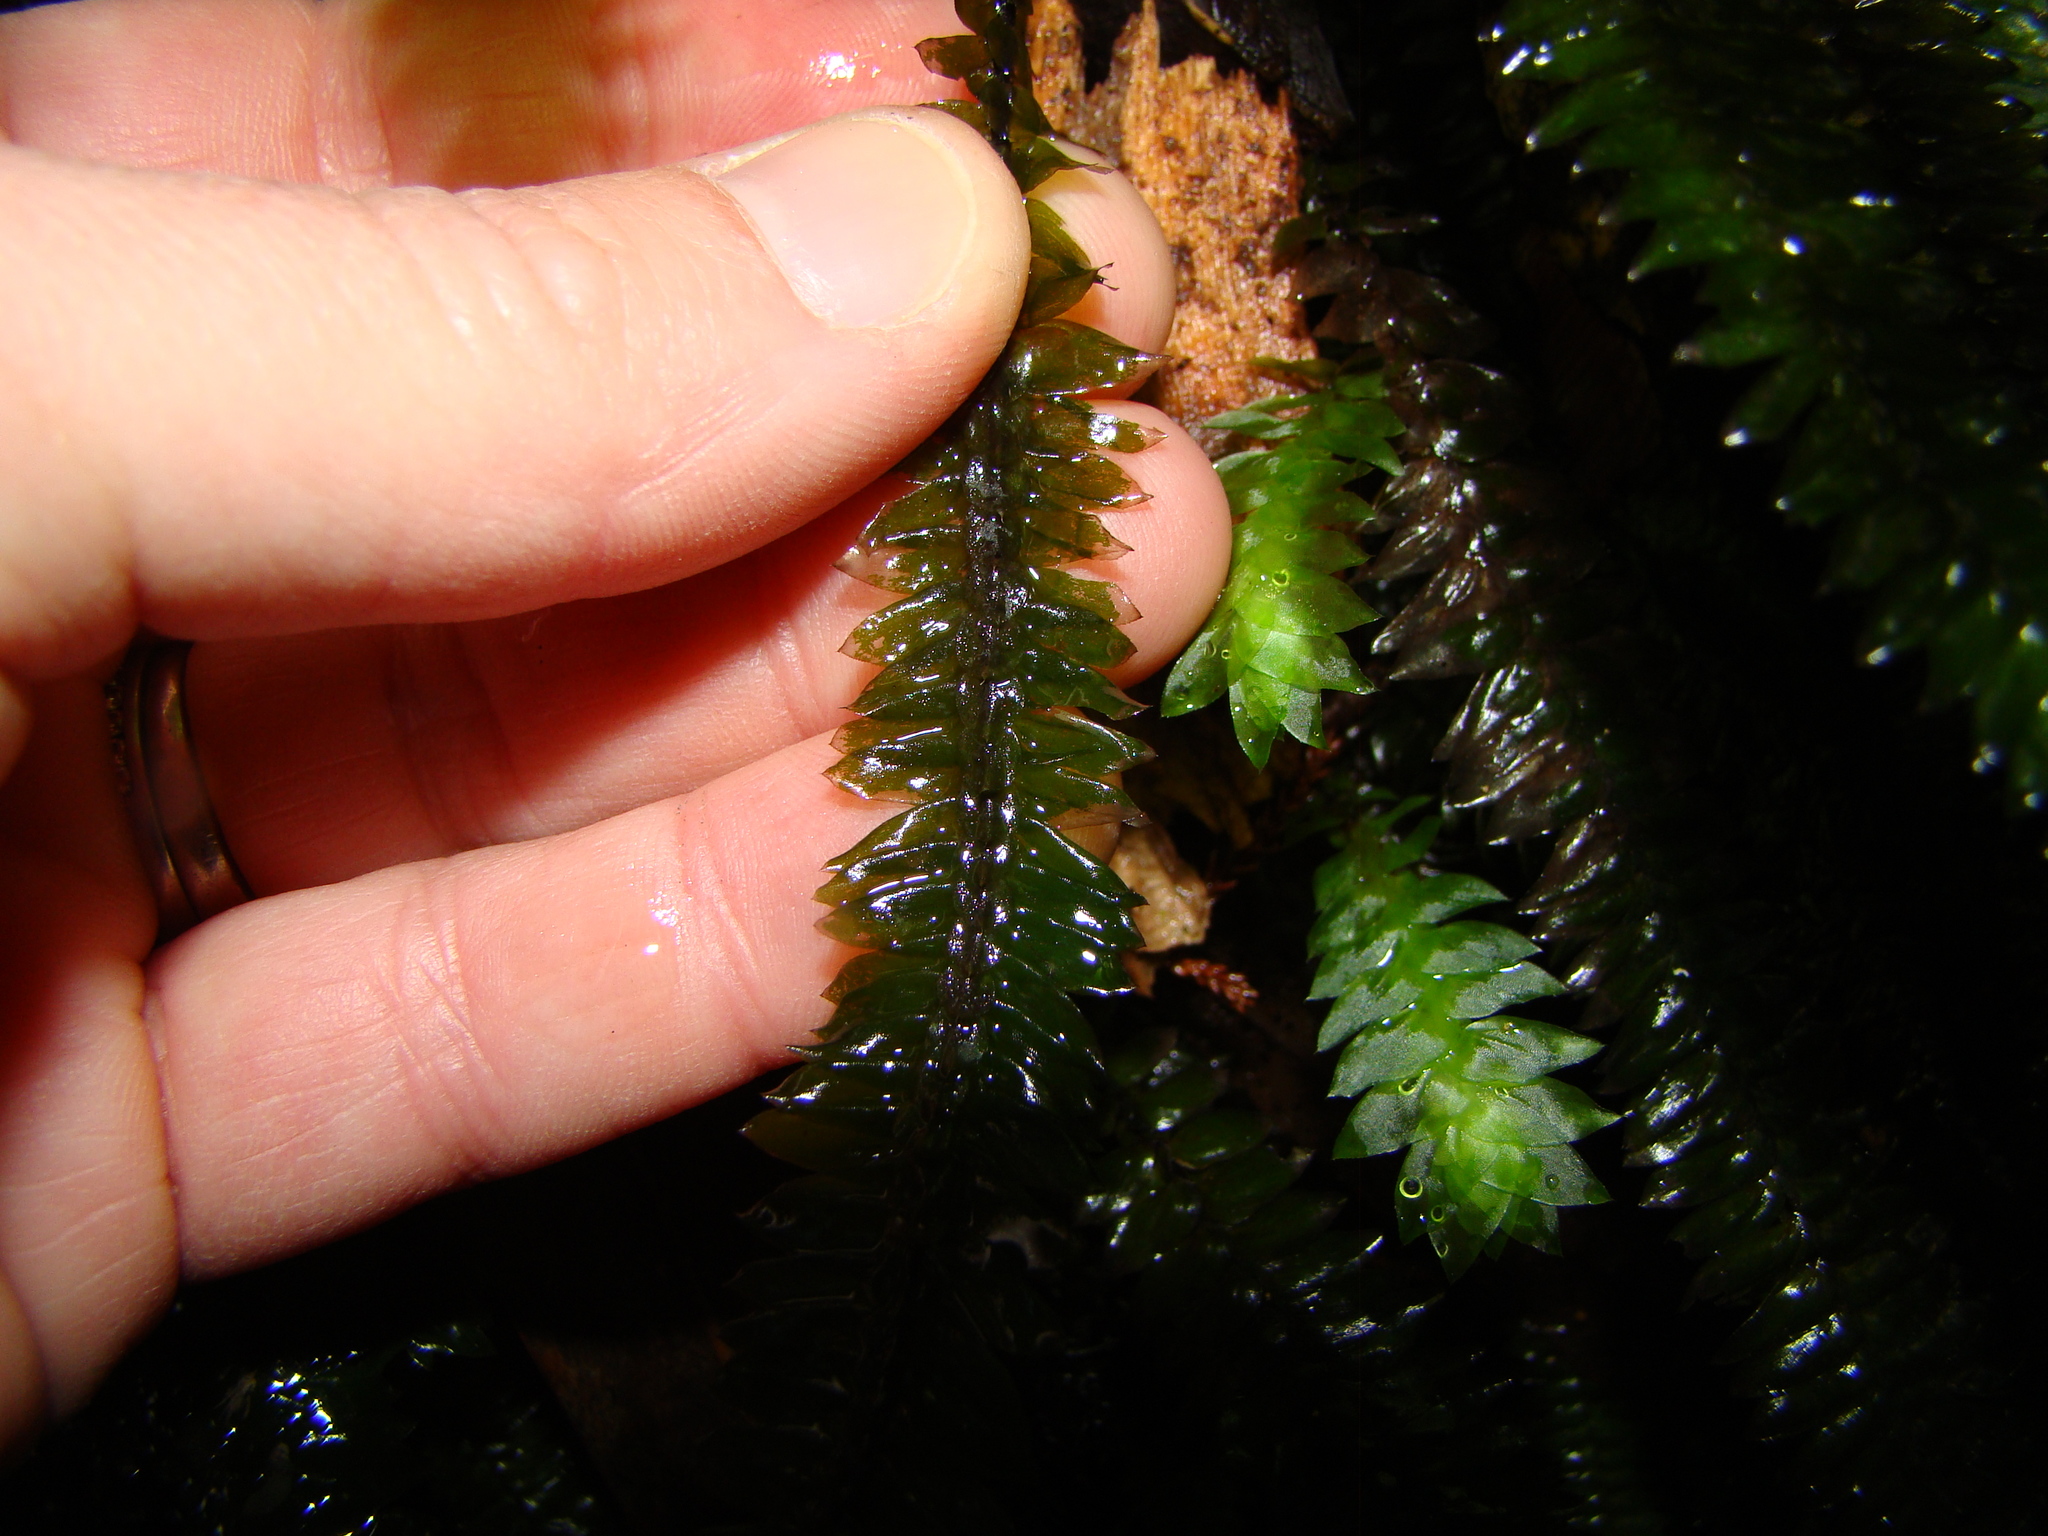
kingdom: Plantae
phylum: Bryophyta
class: Bryopsida
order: Hypopterygiales
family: Hypopterygiaceae
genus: Cyathophorum
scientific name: Cyathophorum bulbosum
